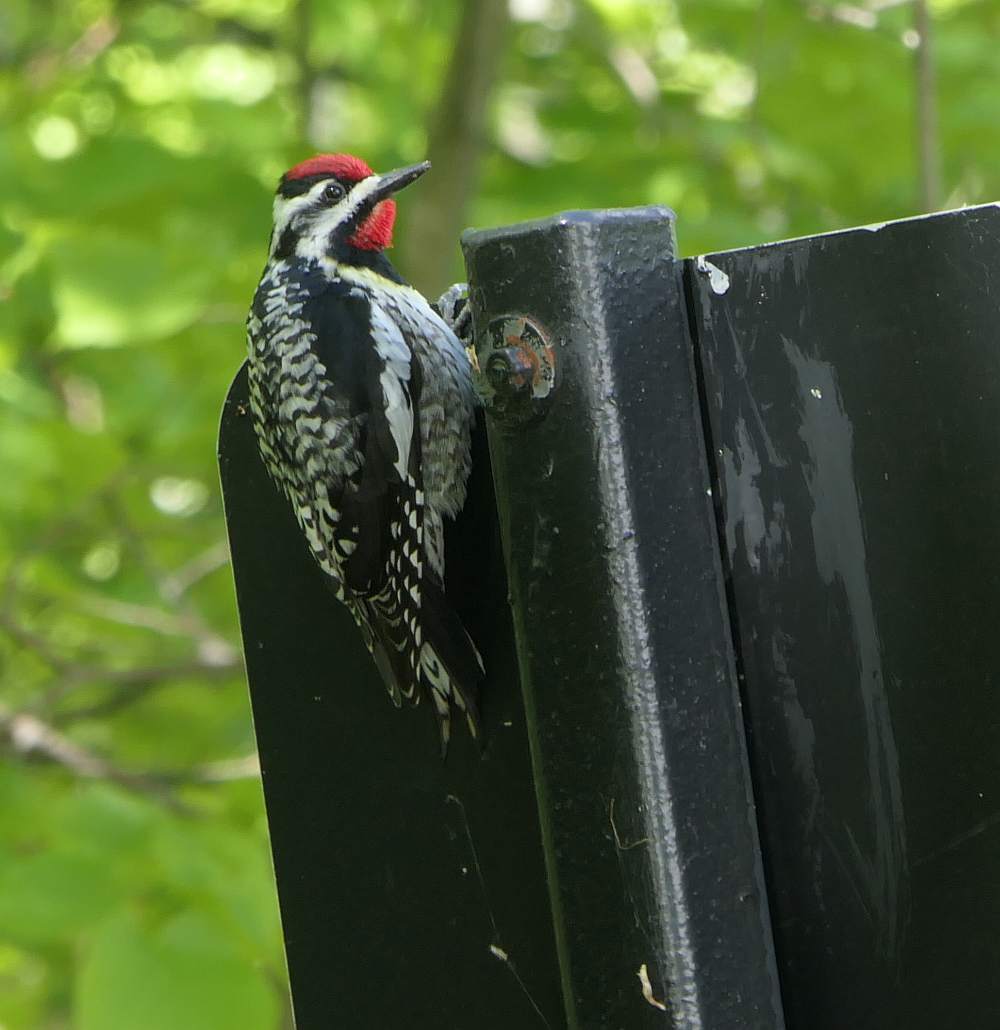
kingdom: Animalia
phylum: Chordata
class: Aves
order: Piciformes
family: Picidae
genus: Sphyrapicus
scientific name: Sphyrapicus varius
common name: Yellow-bellied sapsucker
